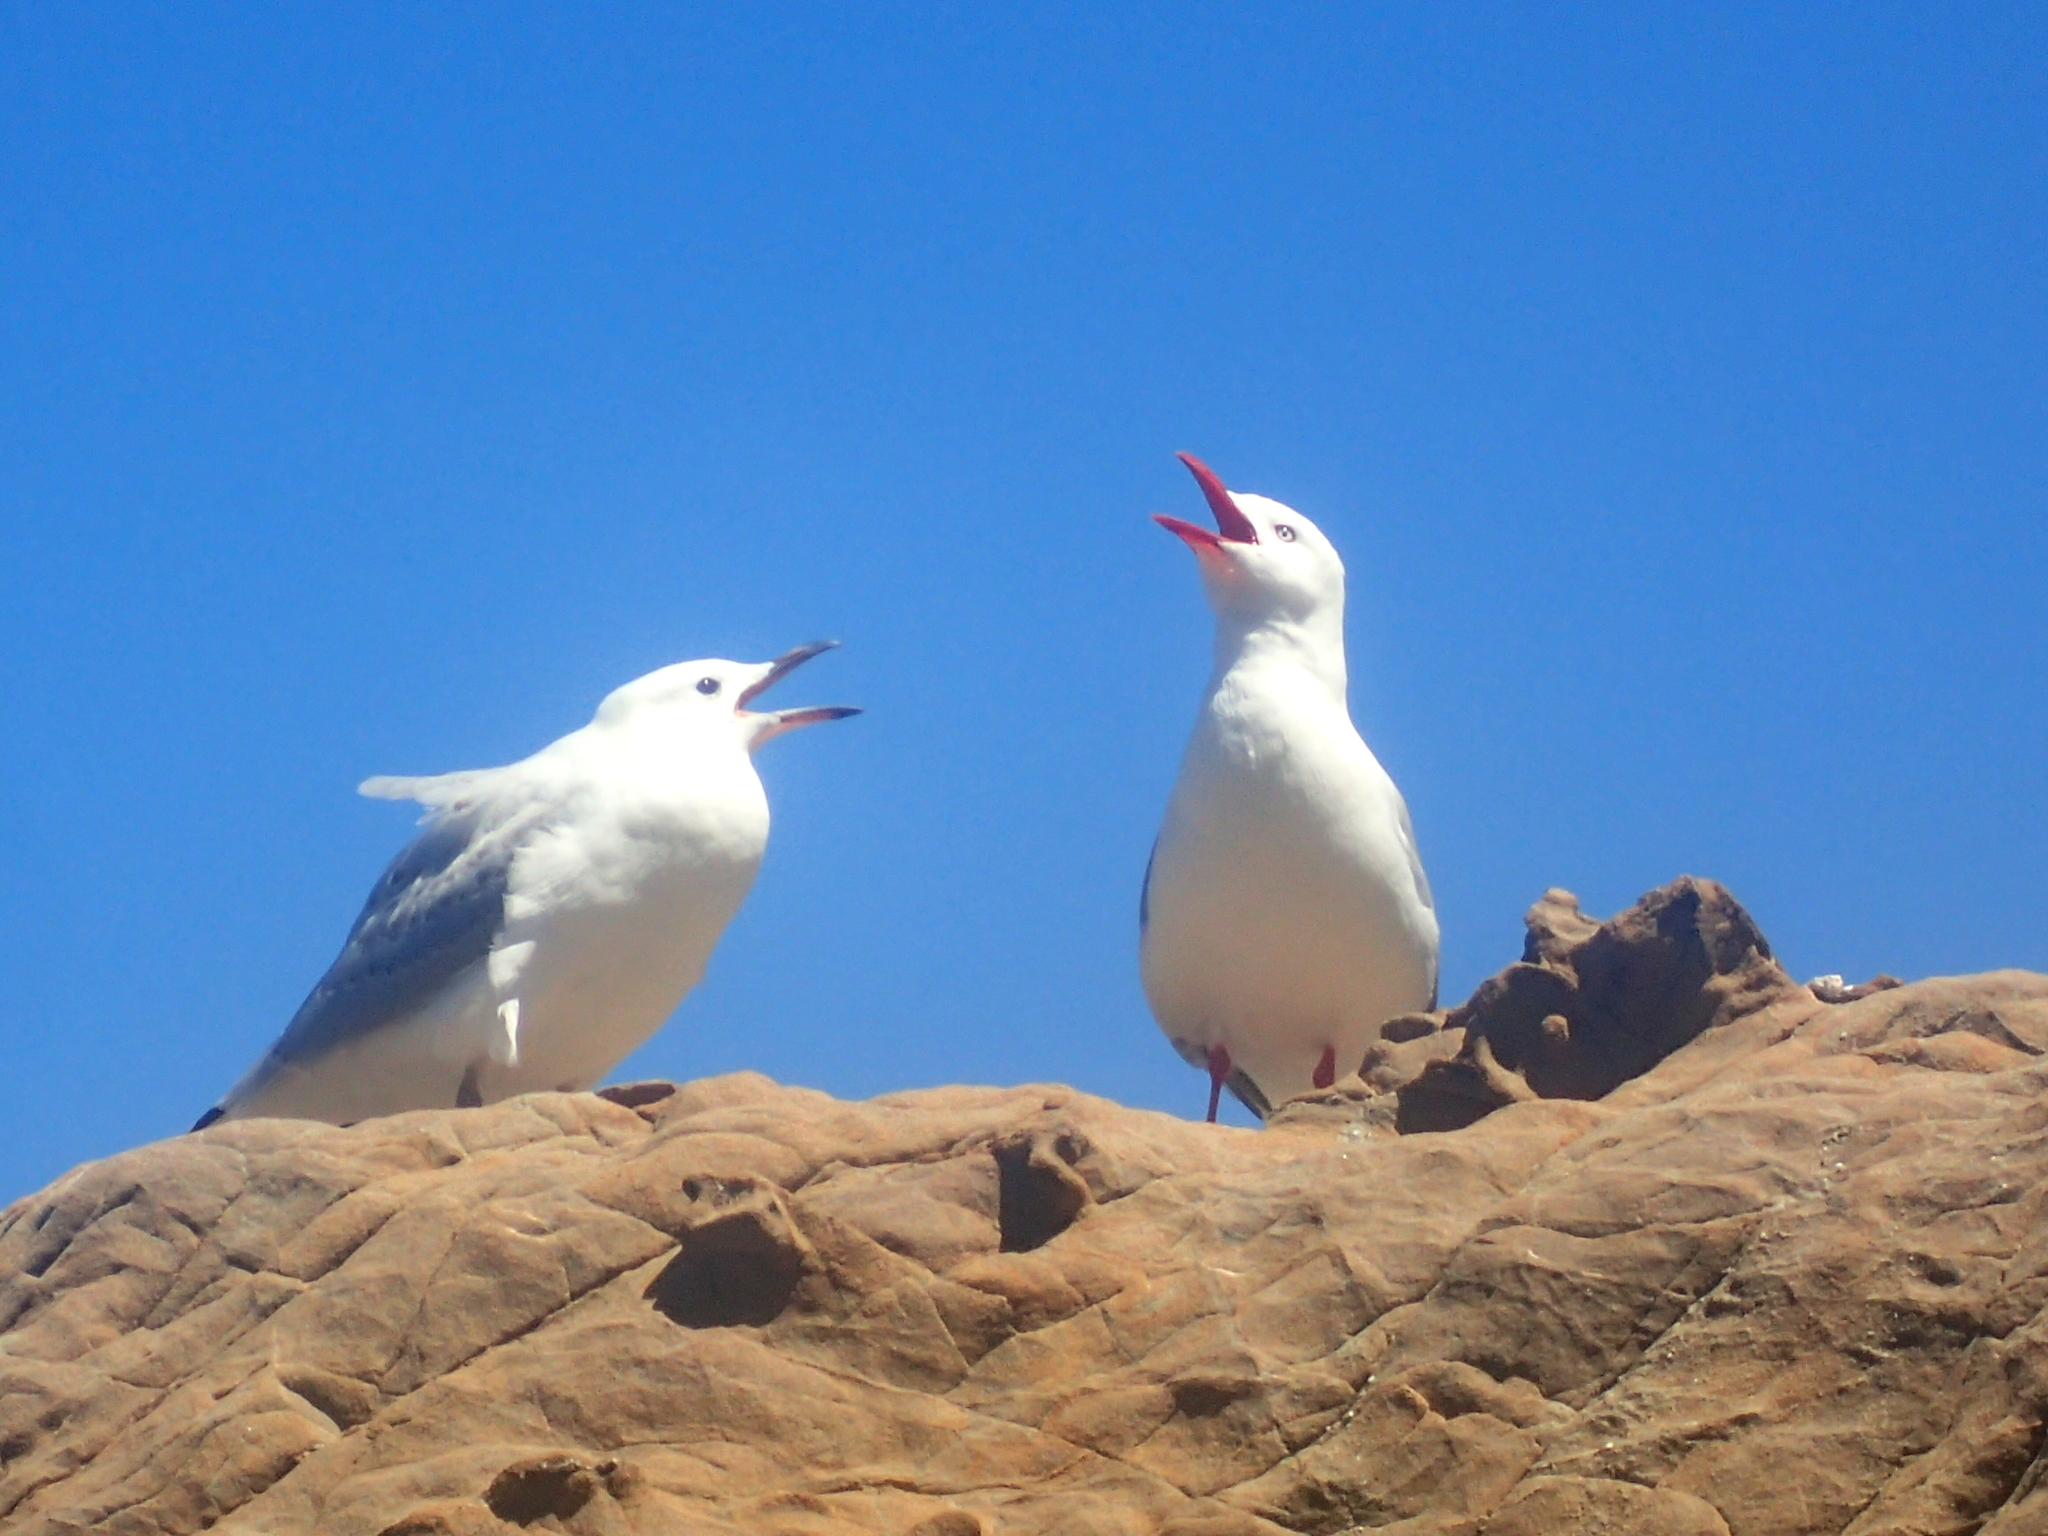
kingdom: Animalia
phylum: Chordata
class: Aves
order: Charadriiformes
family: Laridae
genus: Chroicocephalus
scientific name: Chroicocephalus novaehollandiae
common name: Silver gull
